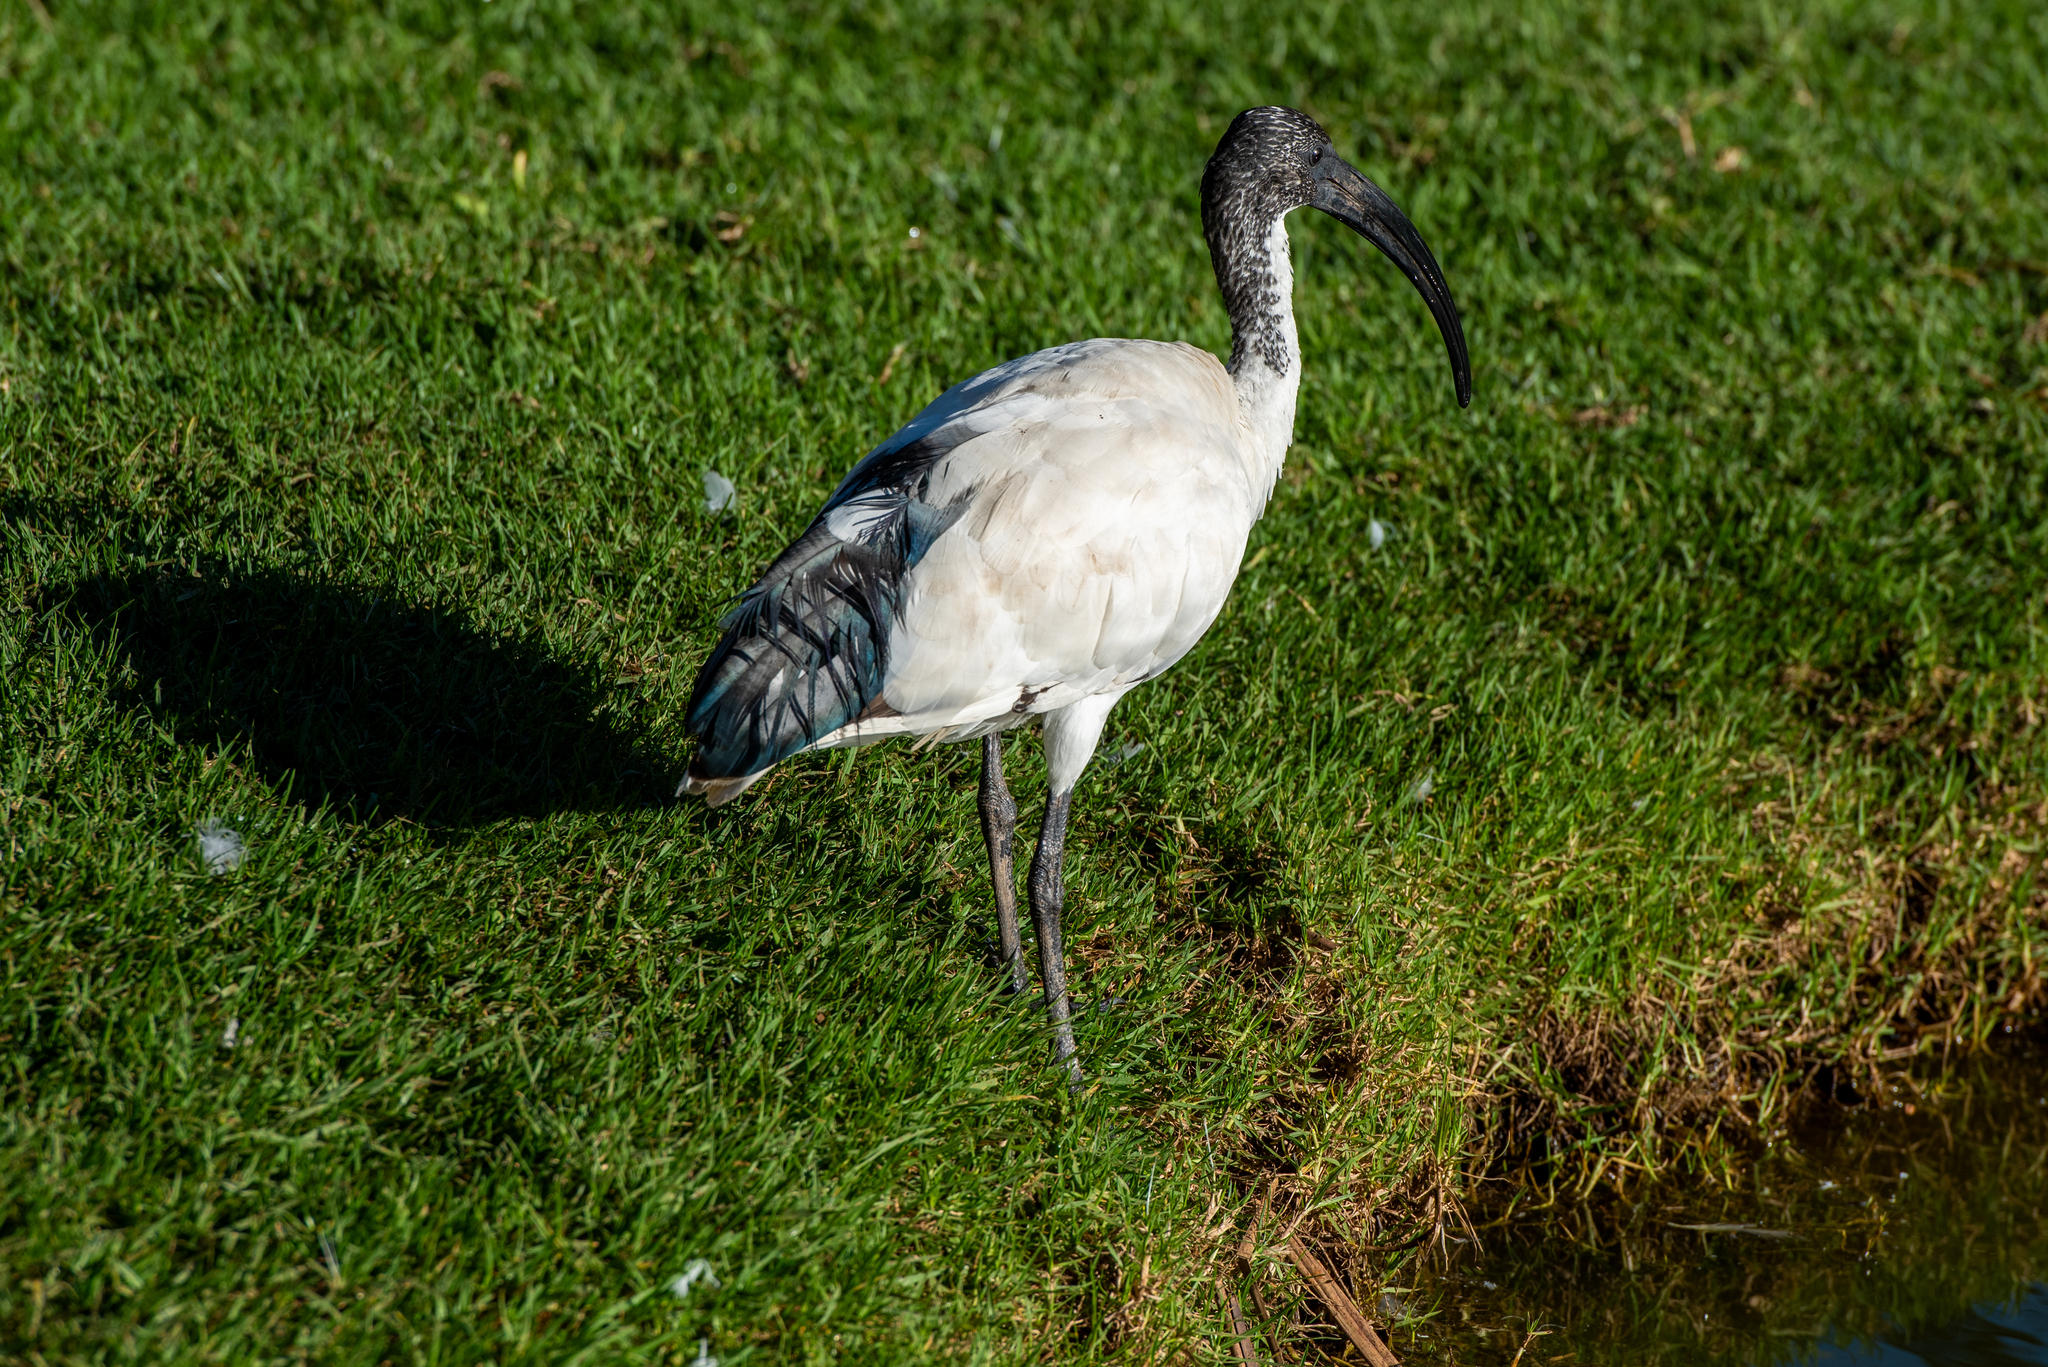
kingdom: Animalia
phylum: Chordata
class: Aves
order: Pelecaniformes
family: Threskiornithidae
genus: Threskiornis
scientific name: Threskiornis aethiopicus
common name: Sacred ibis
